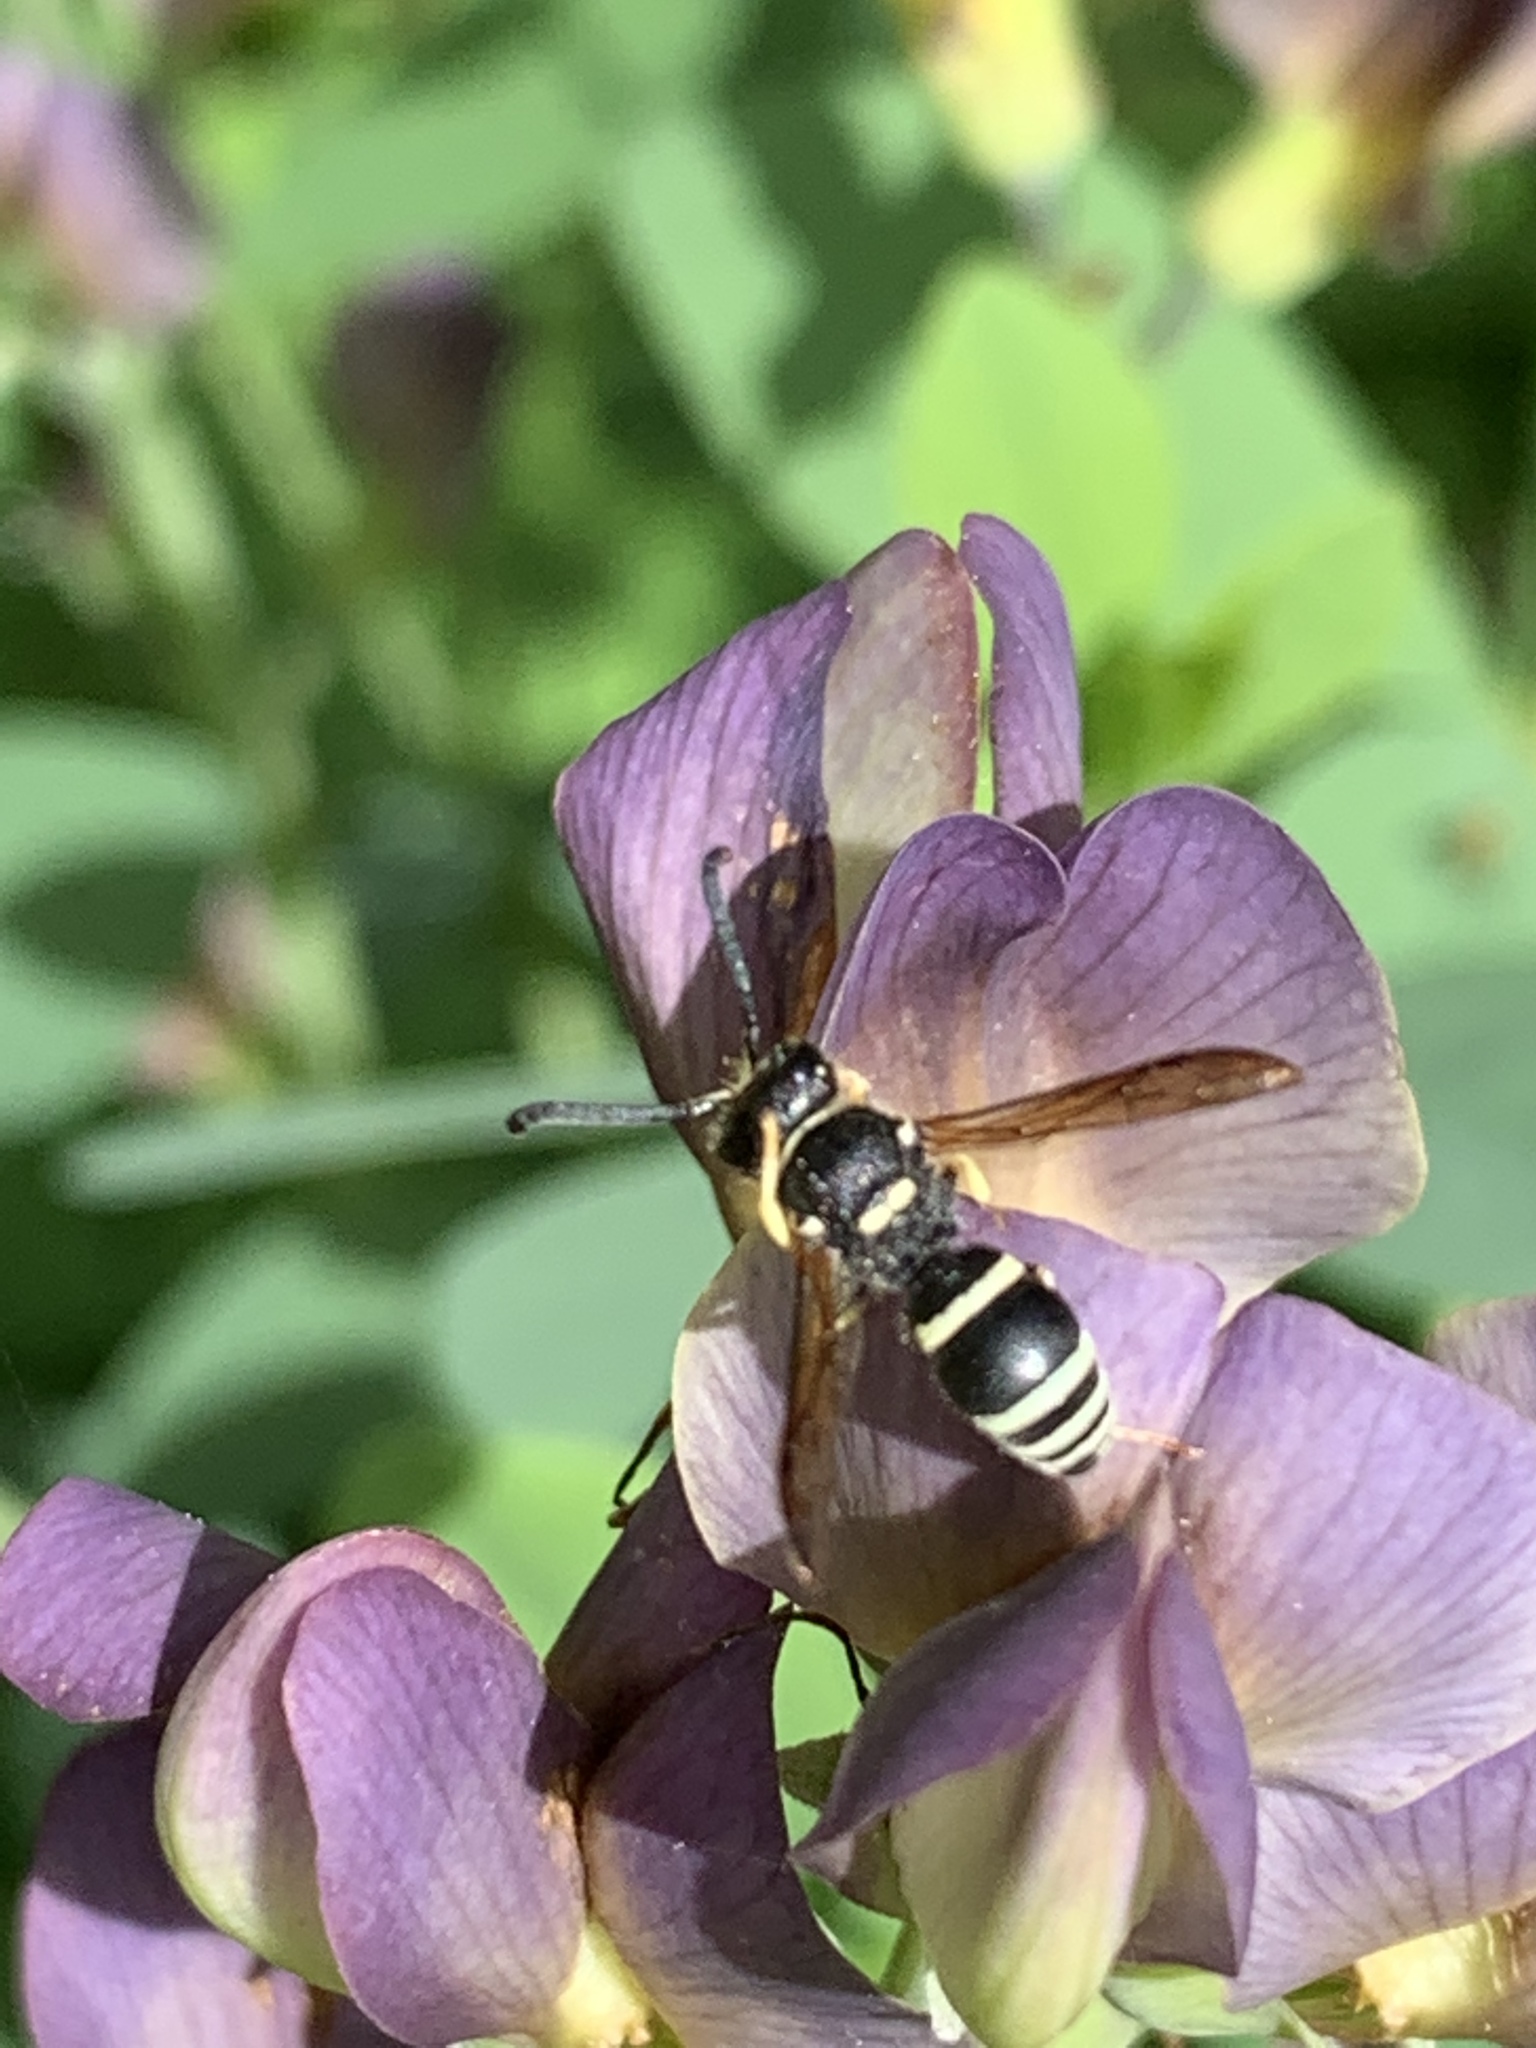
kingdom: Animalia
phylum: Arthropoda
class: Insecta
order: Hymenoptera
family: Vespidae
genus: Ancistrocerus
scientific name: Ancistrocerus waldenii
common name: Walden’s potter wasp
